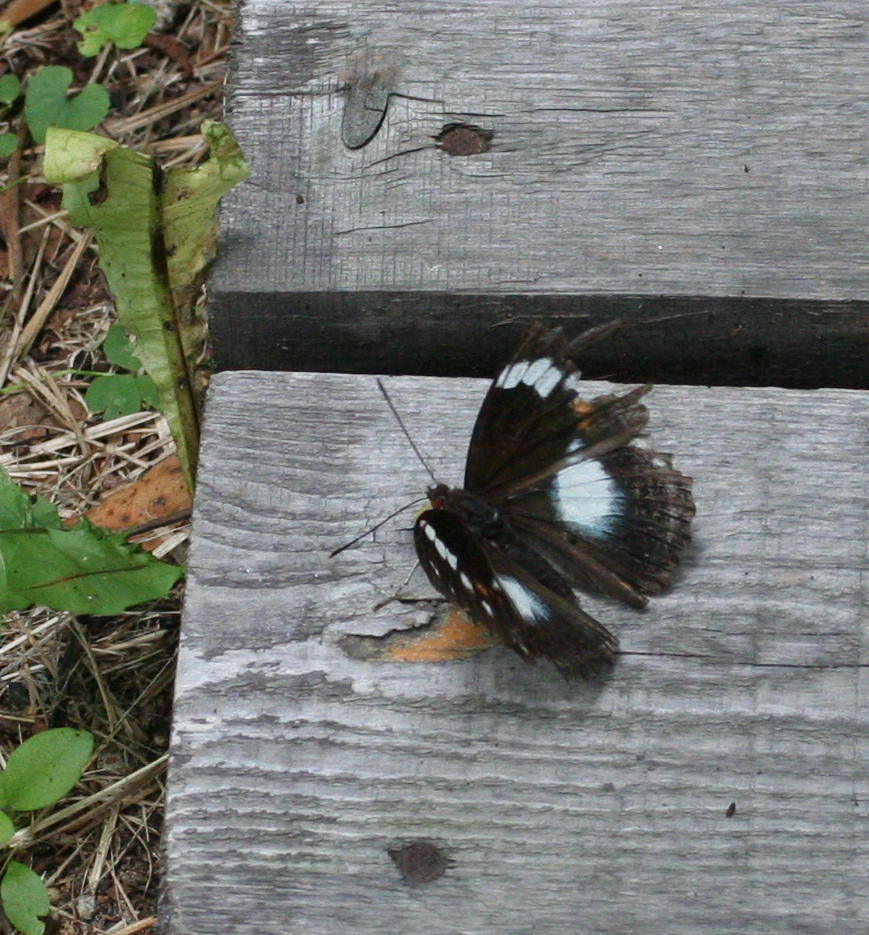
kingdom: Animalia
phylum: Arthropoda
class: Insecta
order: Lepidoptera
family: Nymphalidae
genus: Apatura
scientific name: Apatura Mimathyma schrencki
